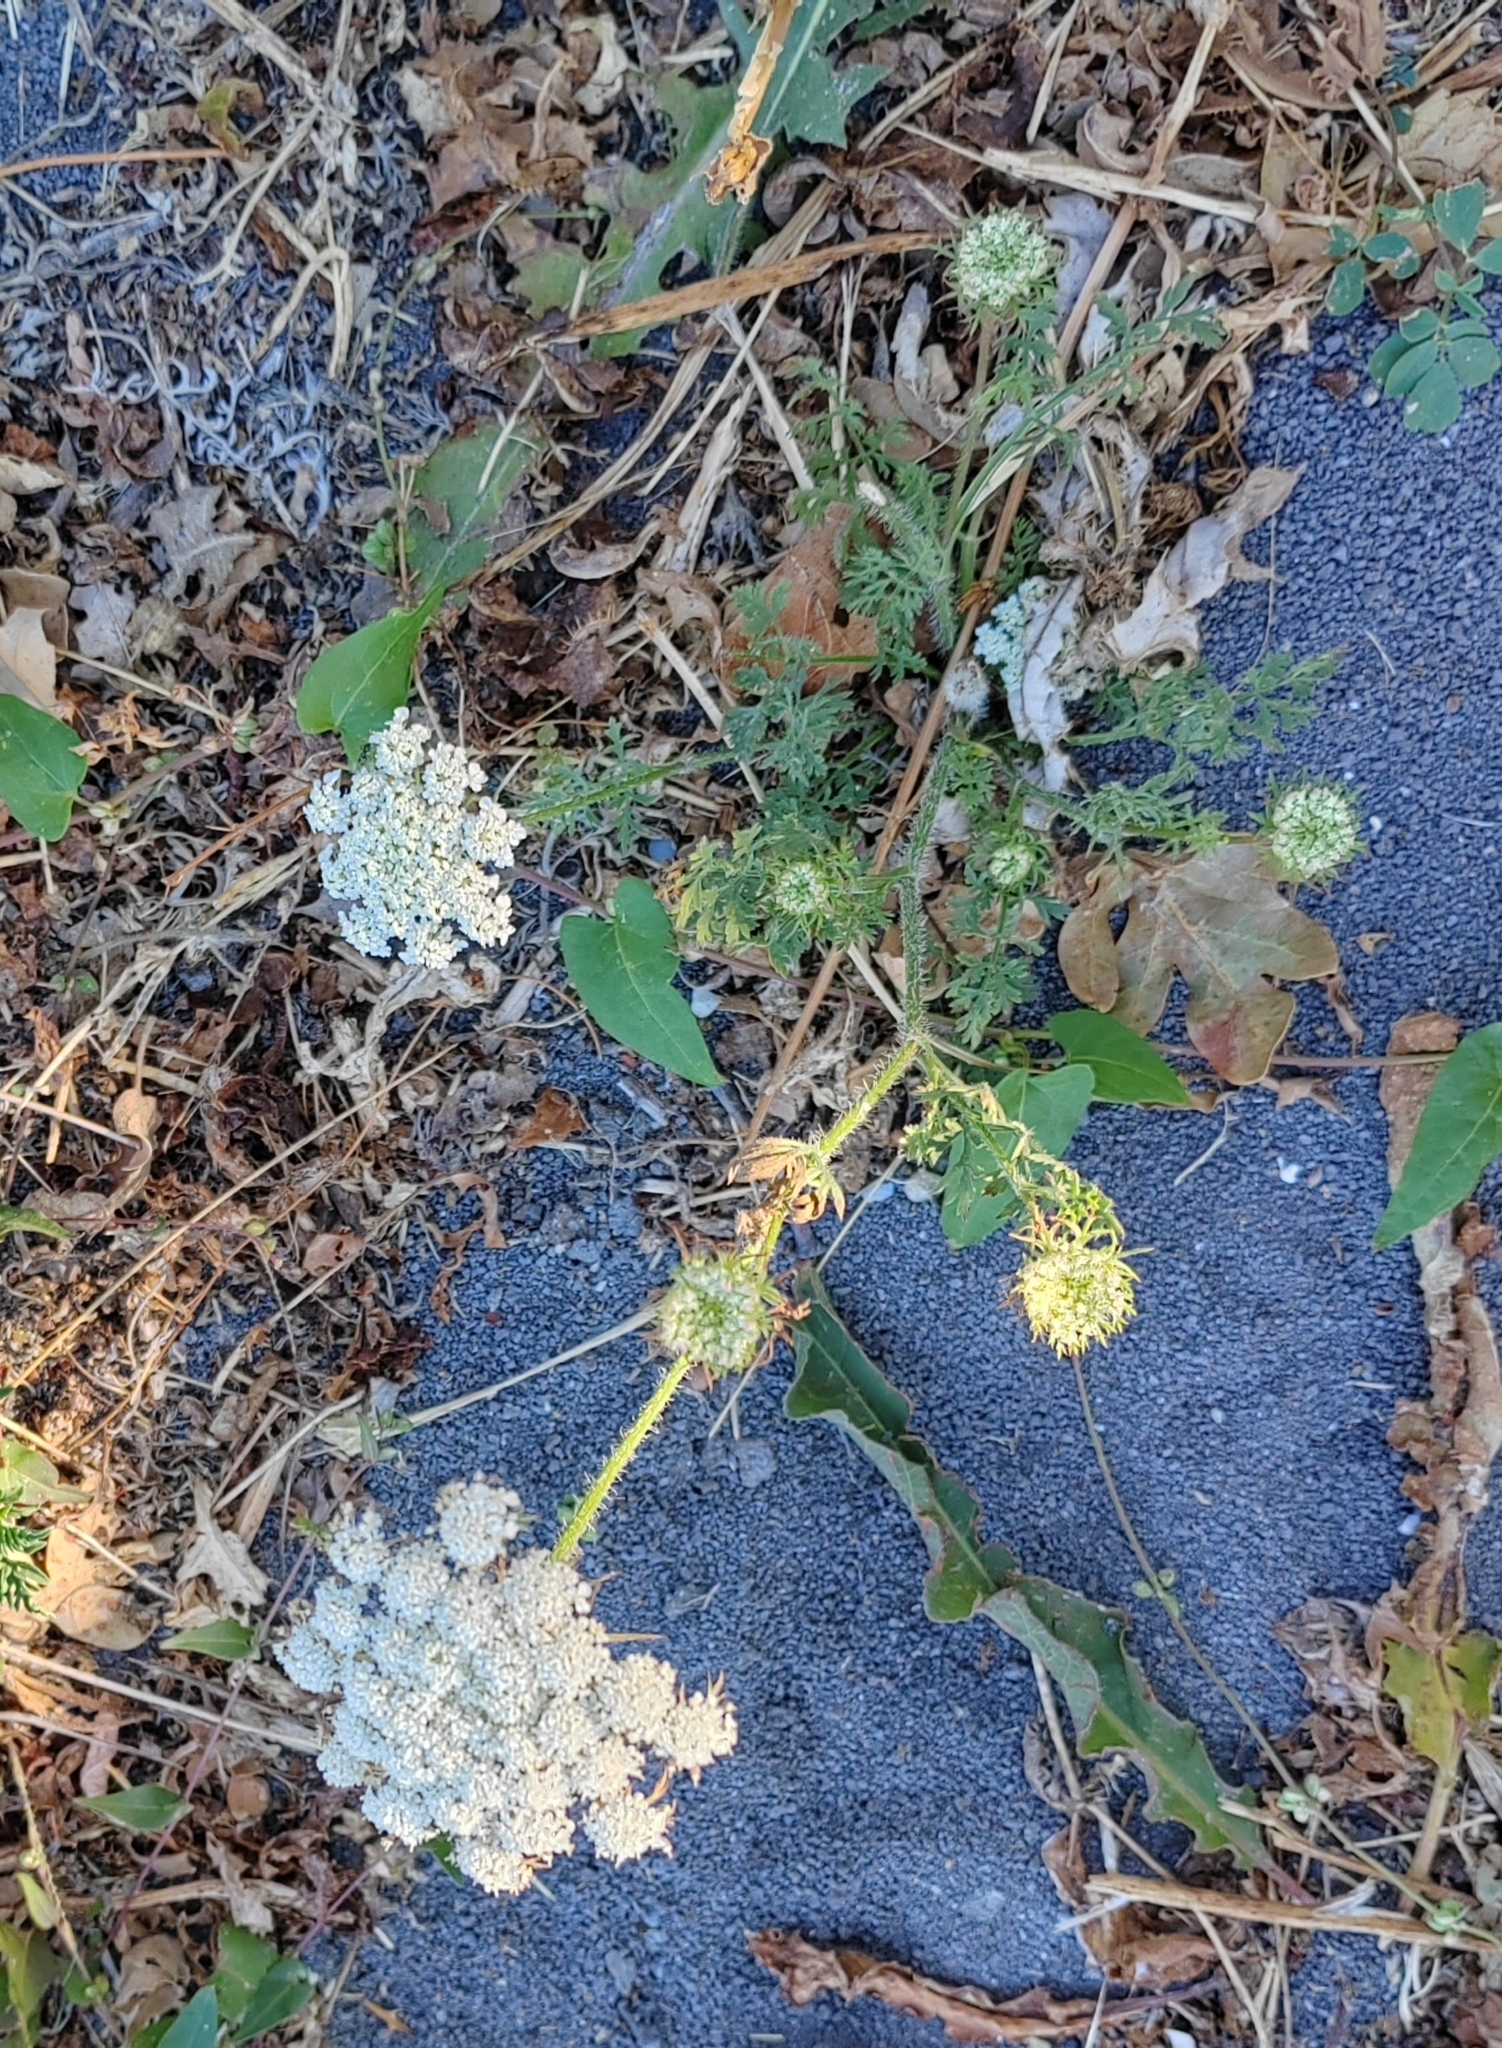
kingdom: Plantae
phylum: Tracheophyta
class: Magnoliopsida
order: Apiales
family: Apiaceae
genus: Daucus
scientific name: Daucus carota
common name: Wild carrot
